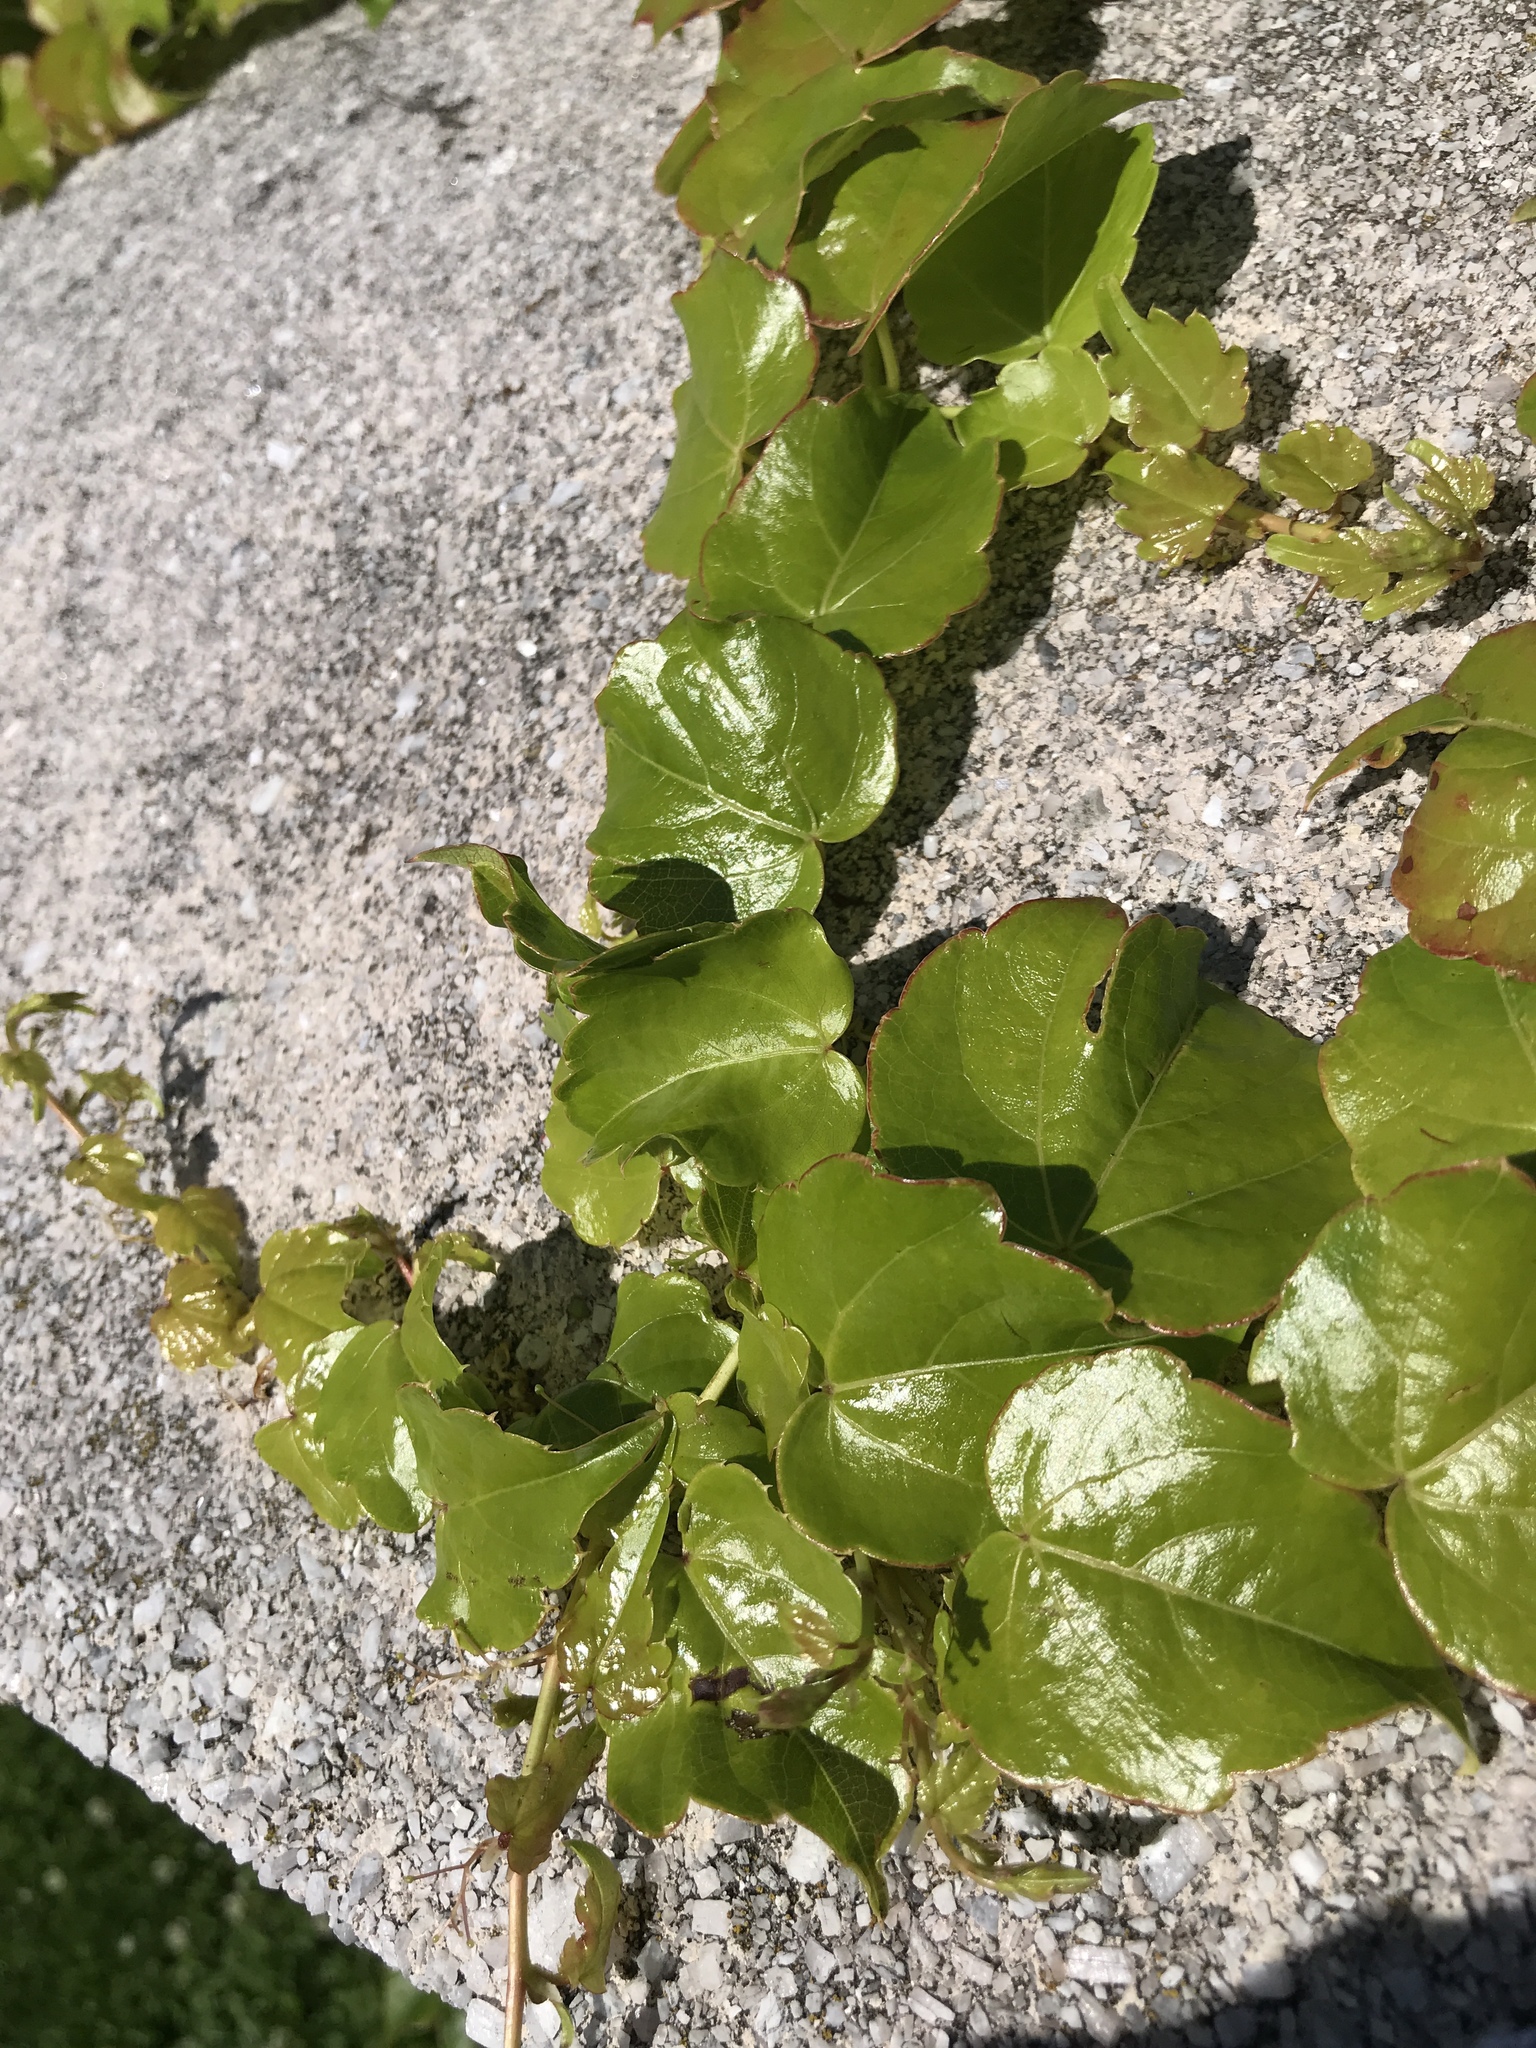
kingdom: Plantae
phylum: Tracheophyta
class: Magnoliopsida
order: Vitales
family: Vitaceae
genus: Parthenocissus
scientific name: Parthenocissus tricuspidata
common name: Boston ivy
